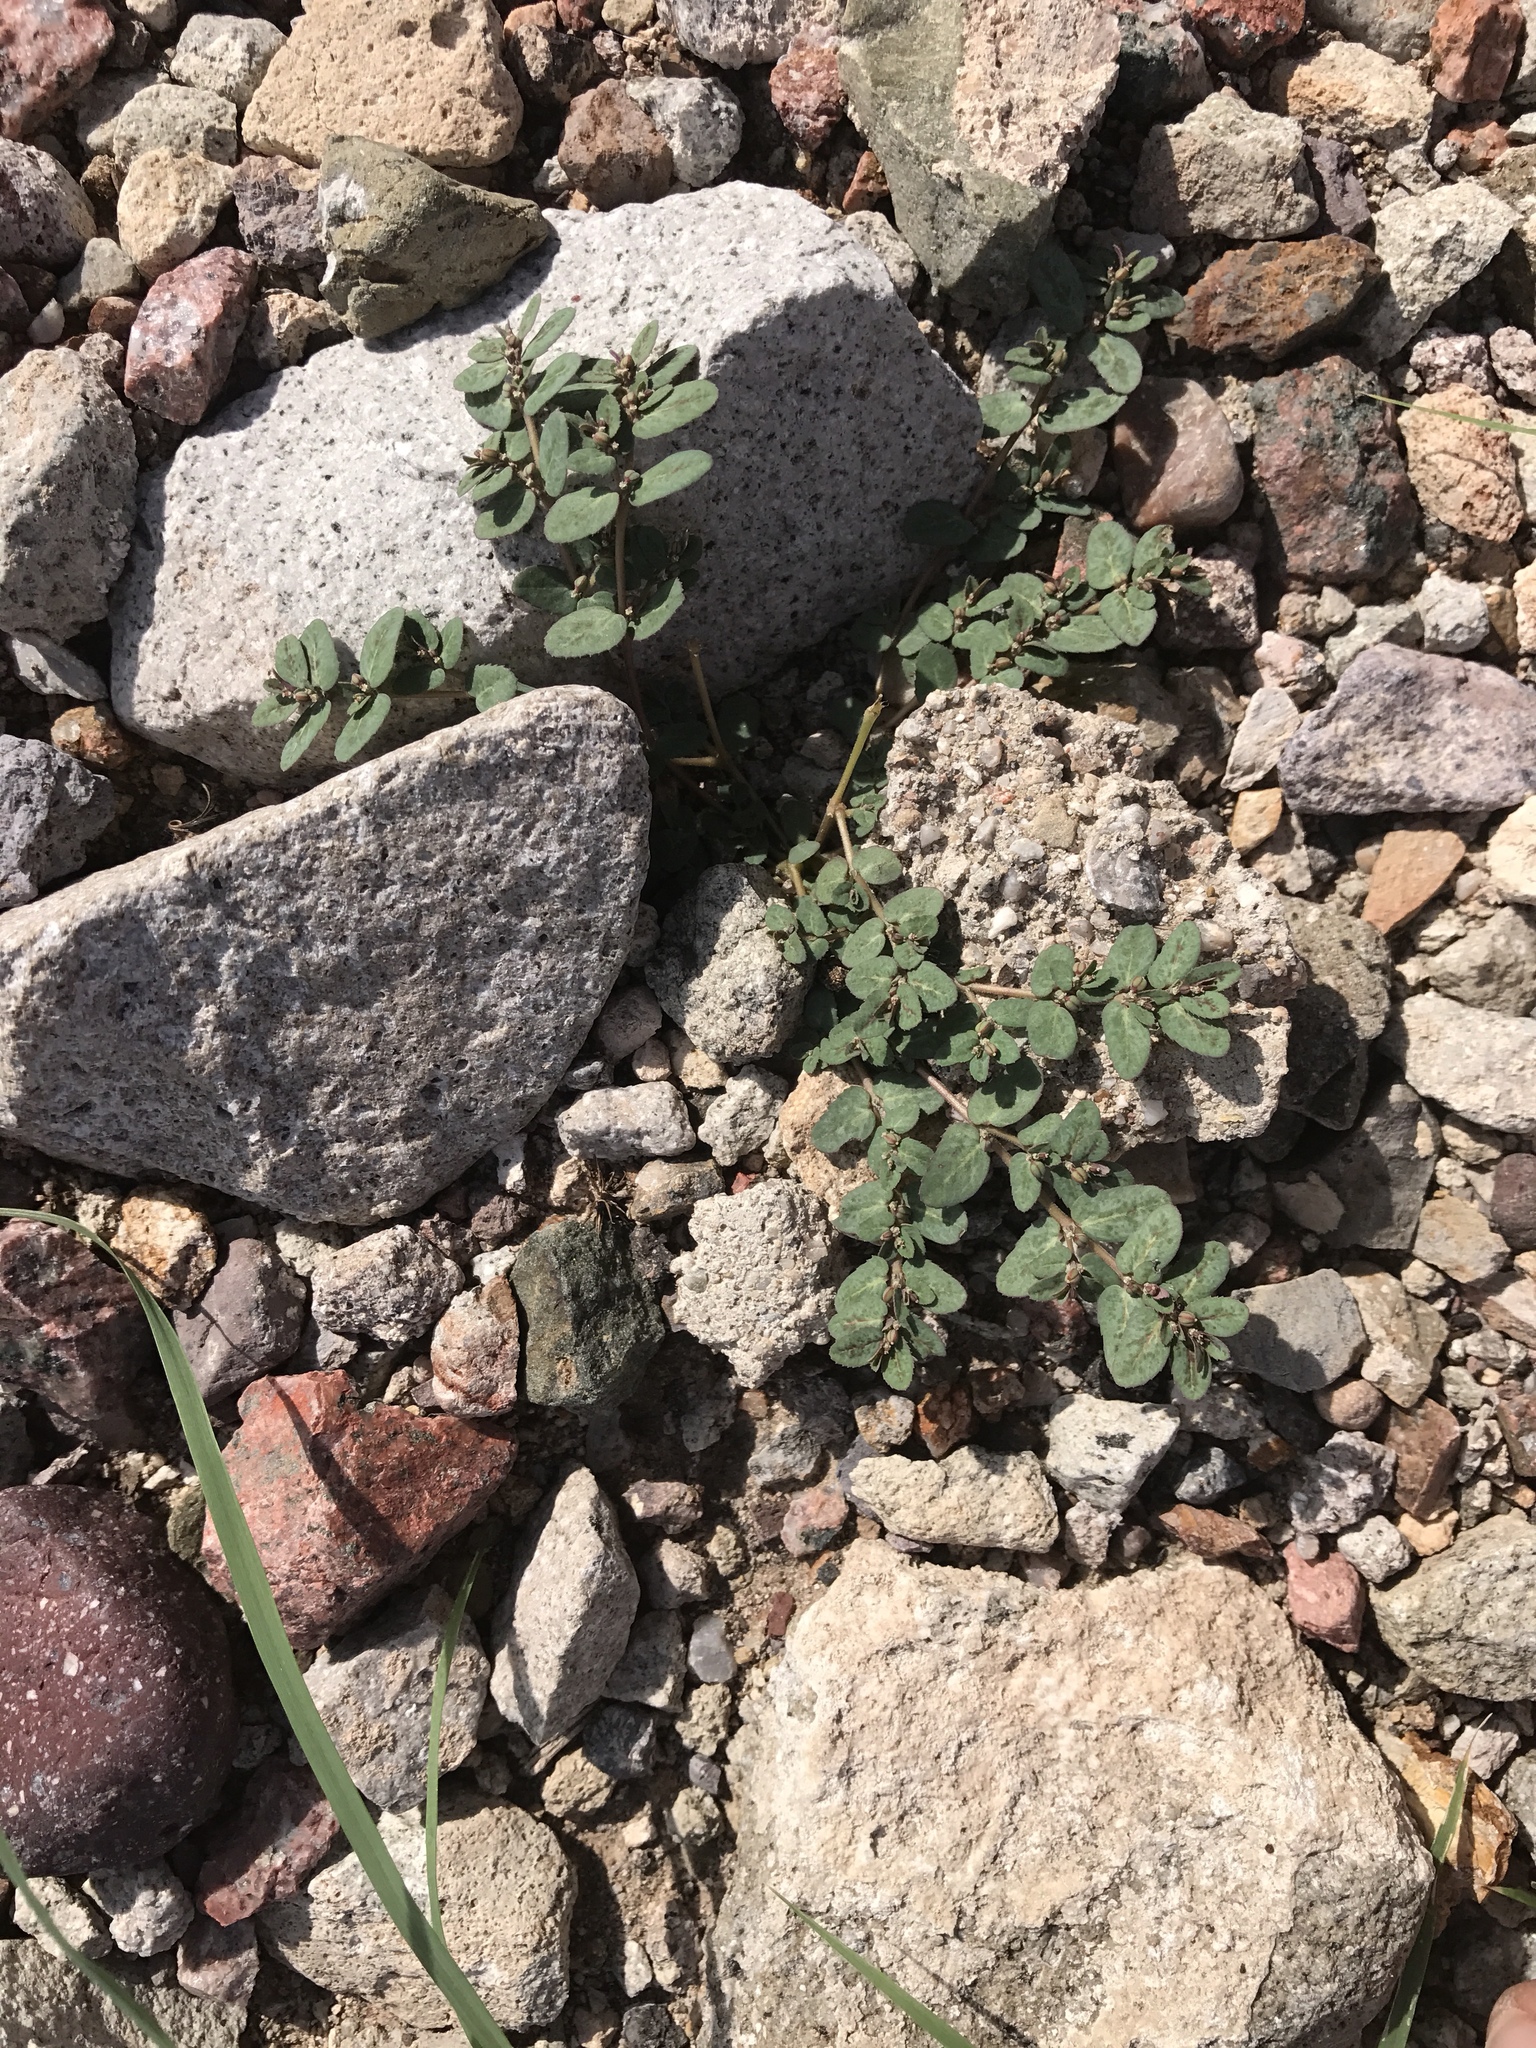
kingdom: Plantae
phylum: Tracheophyta
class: Magnoliopsida
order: Malpighiales
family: Euphorbiaceae
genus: Euphorbia
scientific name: Euphorbia abramsiana
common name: Abram's spurge
